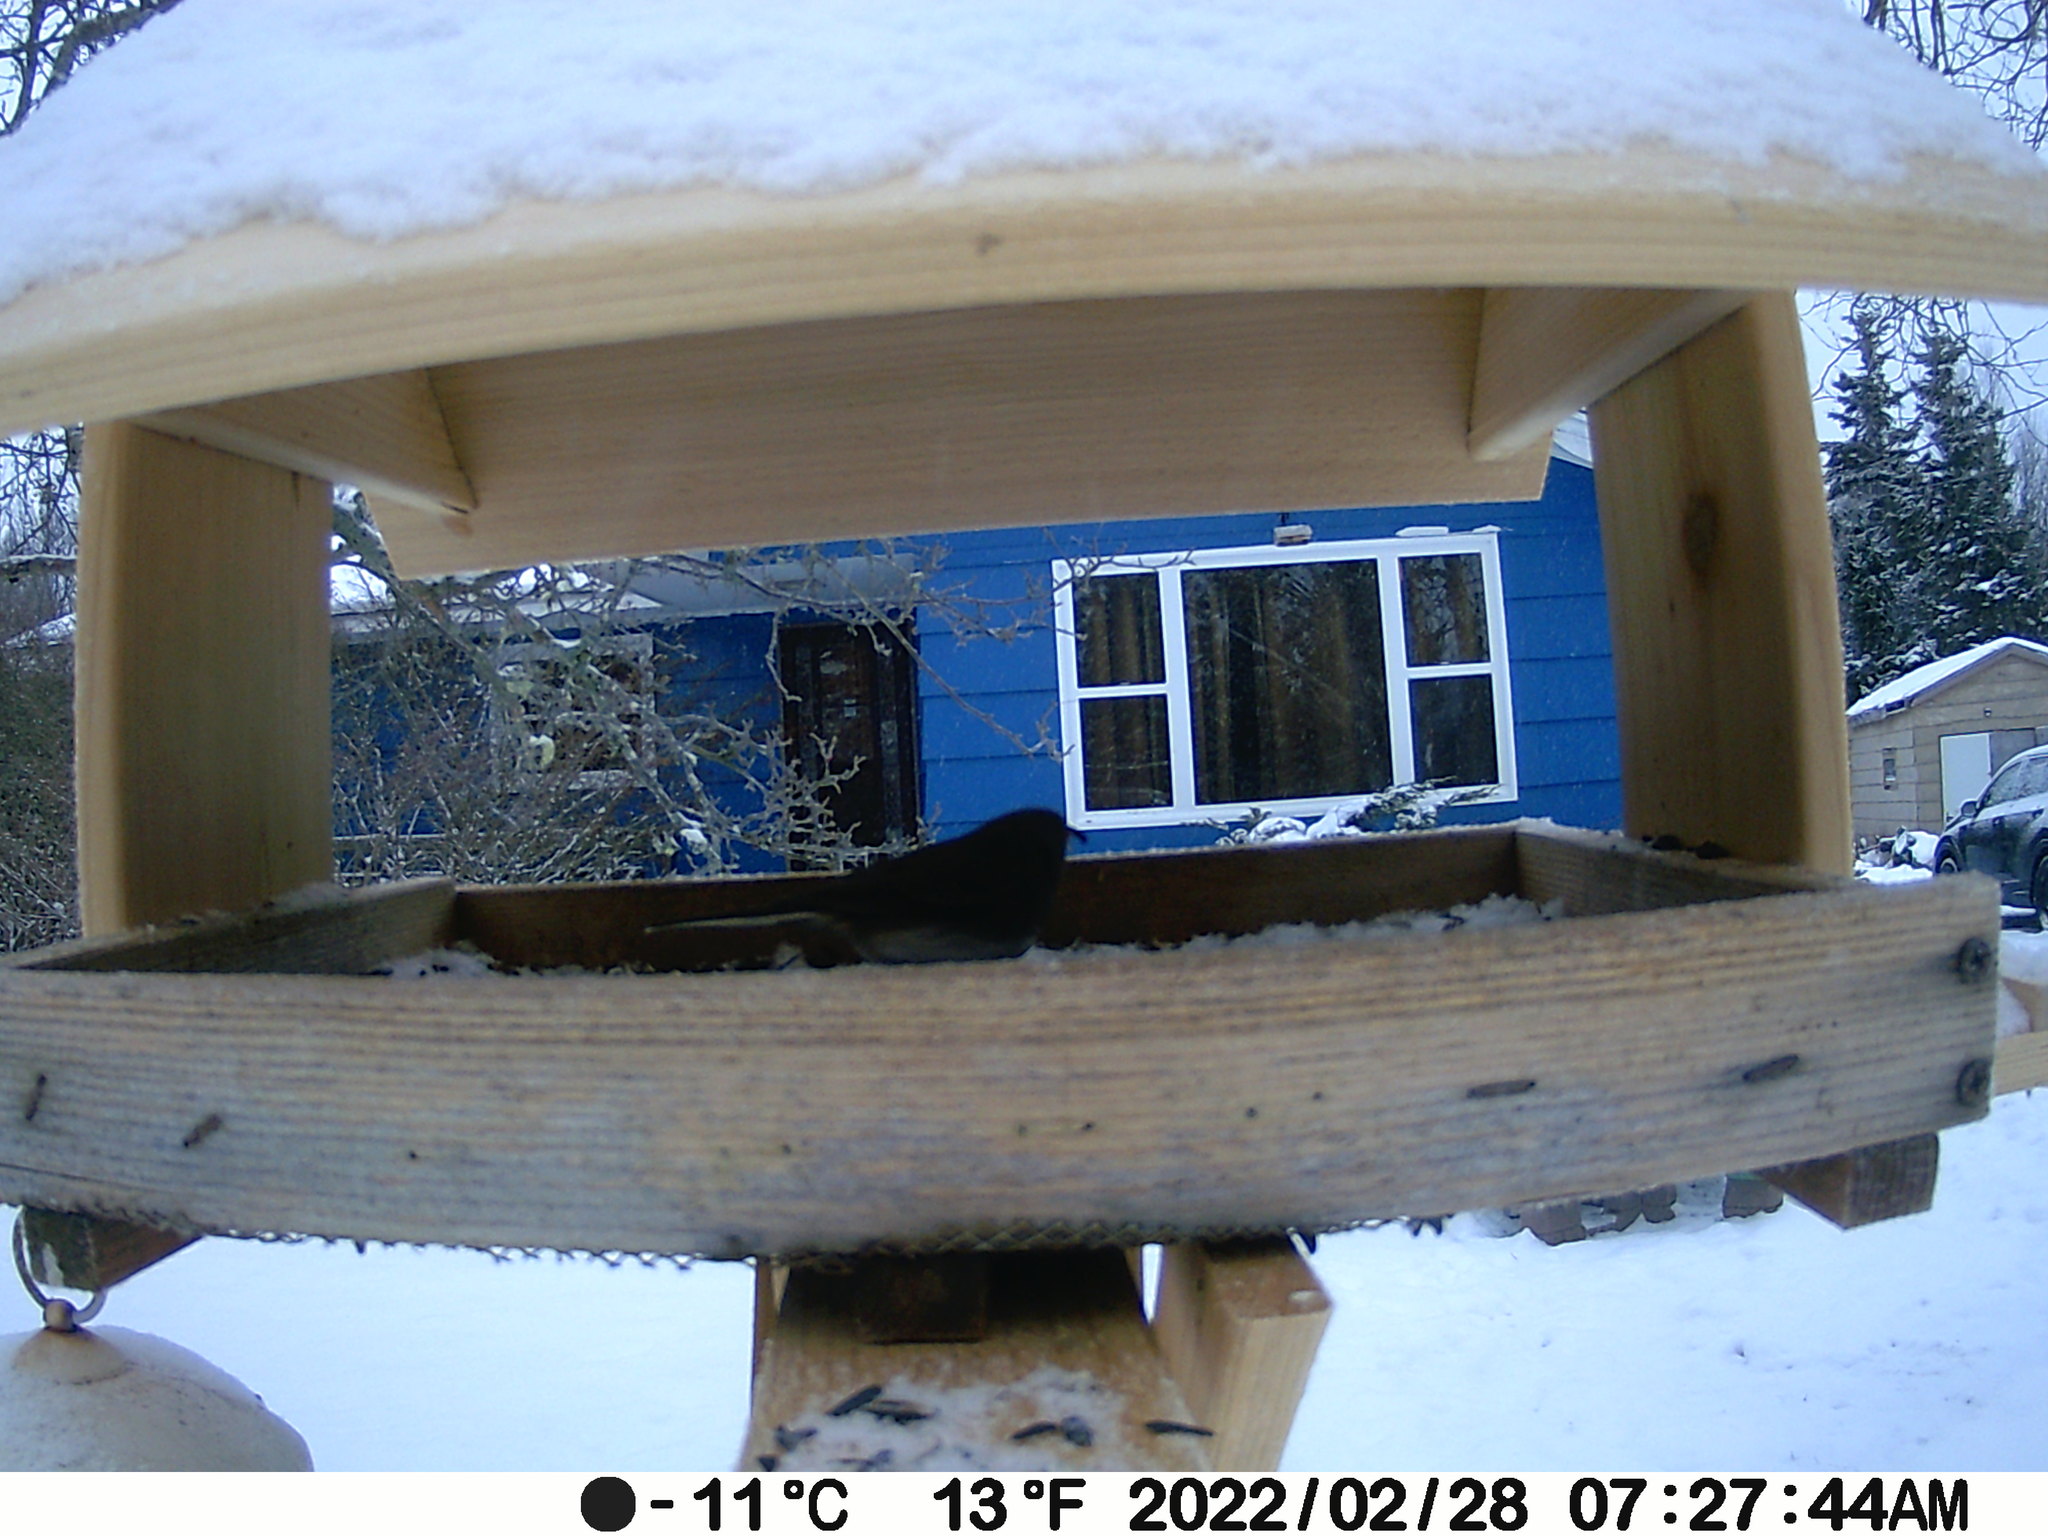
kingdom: Animalia
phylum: Chordata
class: Aves
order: Passeriformes
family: Passerellidae
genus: Junco
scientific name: Junco hyemalis
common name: Dark-eyed junco
